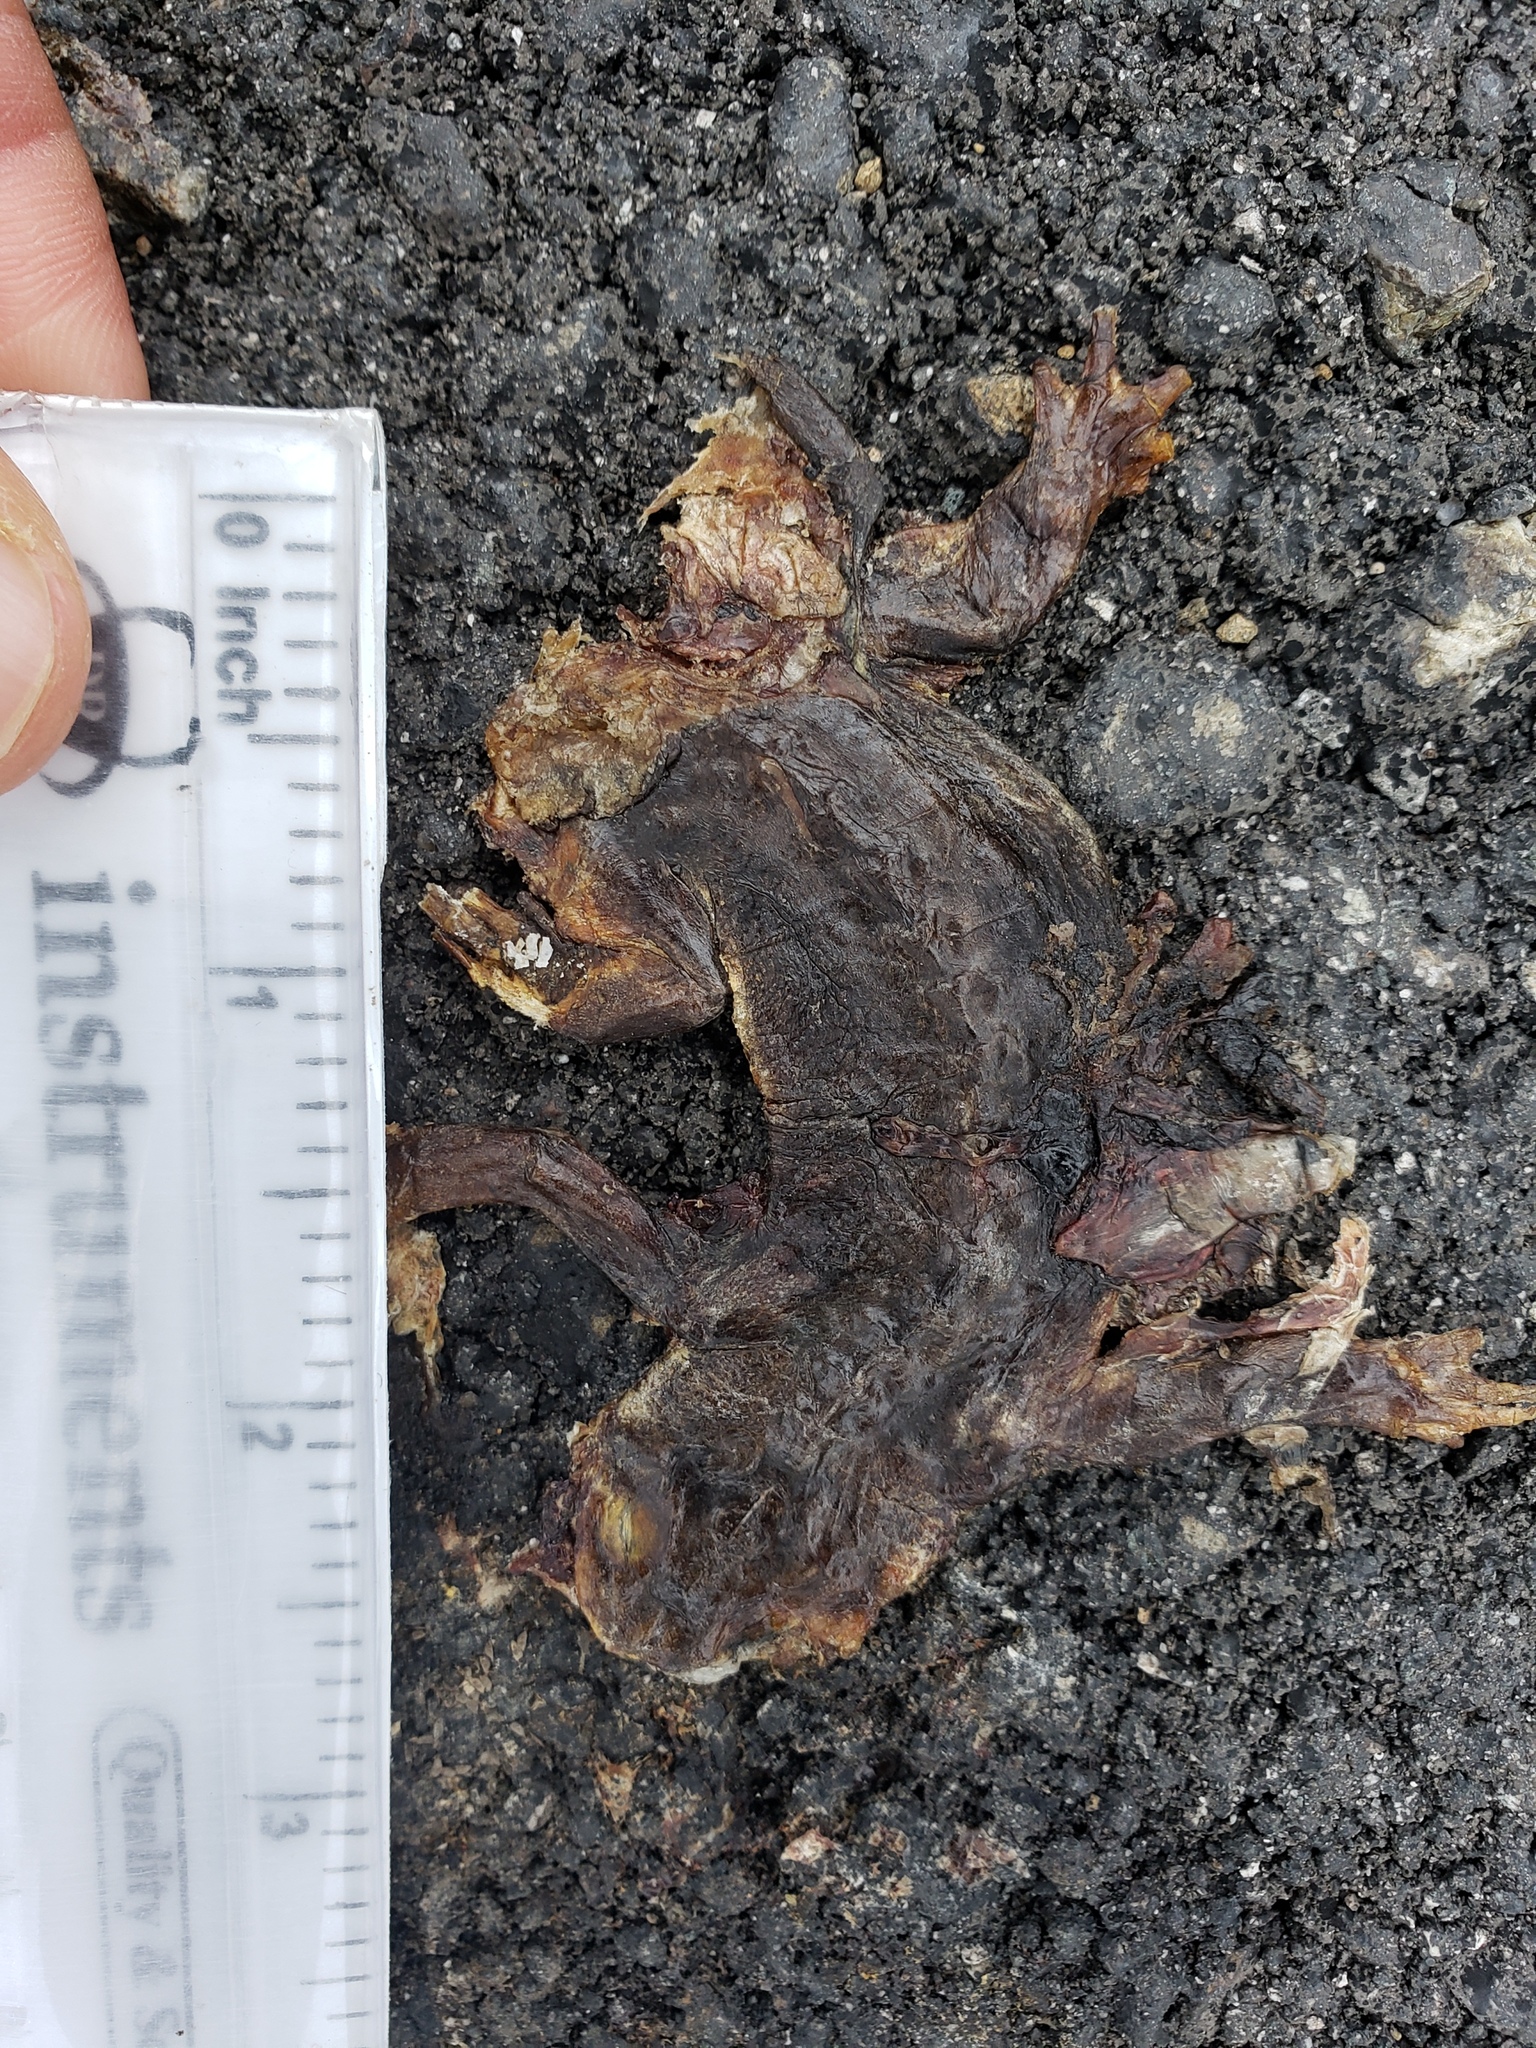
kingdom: Animalia
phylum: Chordata
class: Amphibia
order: Caudata
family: Salamandridae
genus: Taricha
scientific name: Taricha
